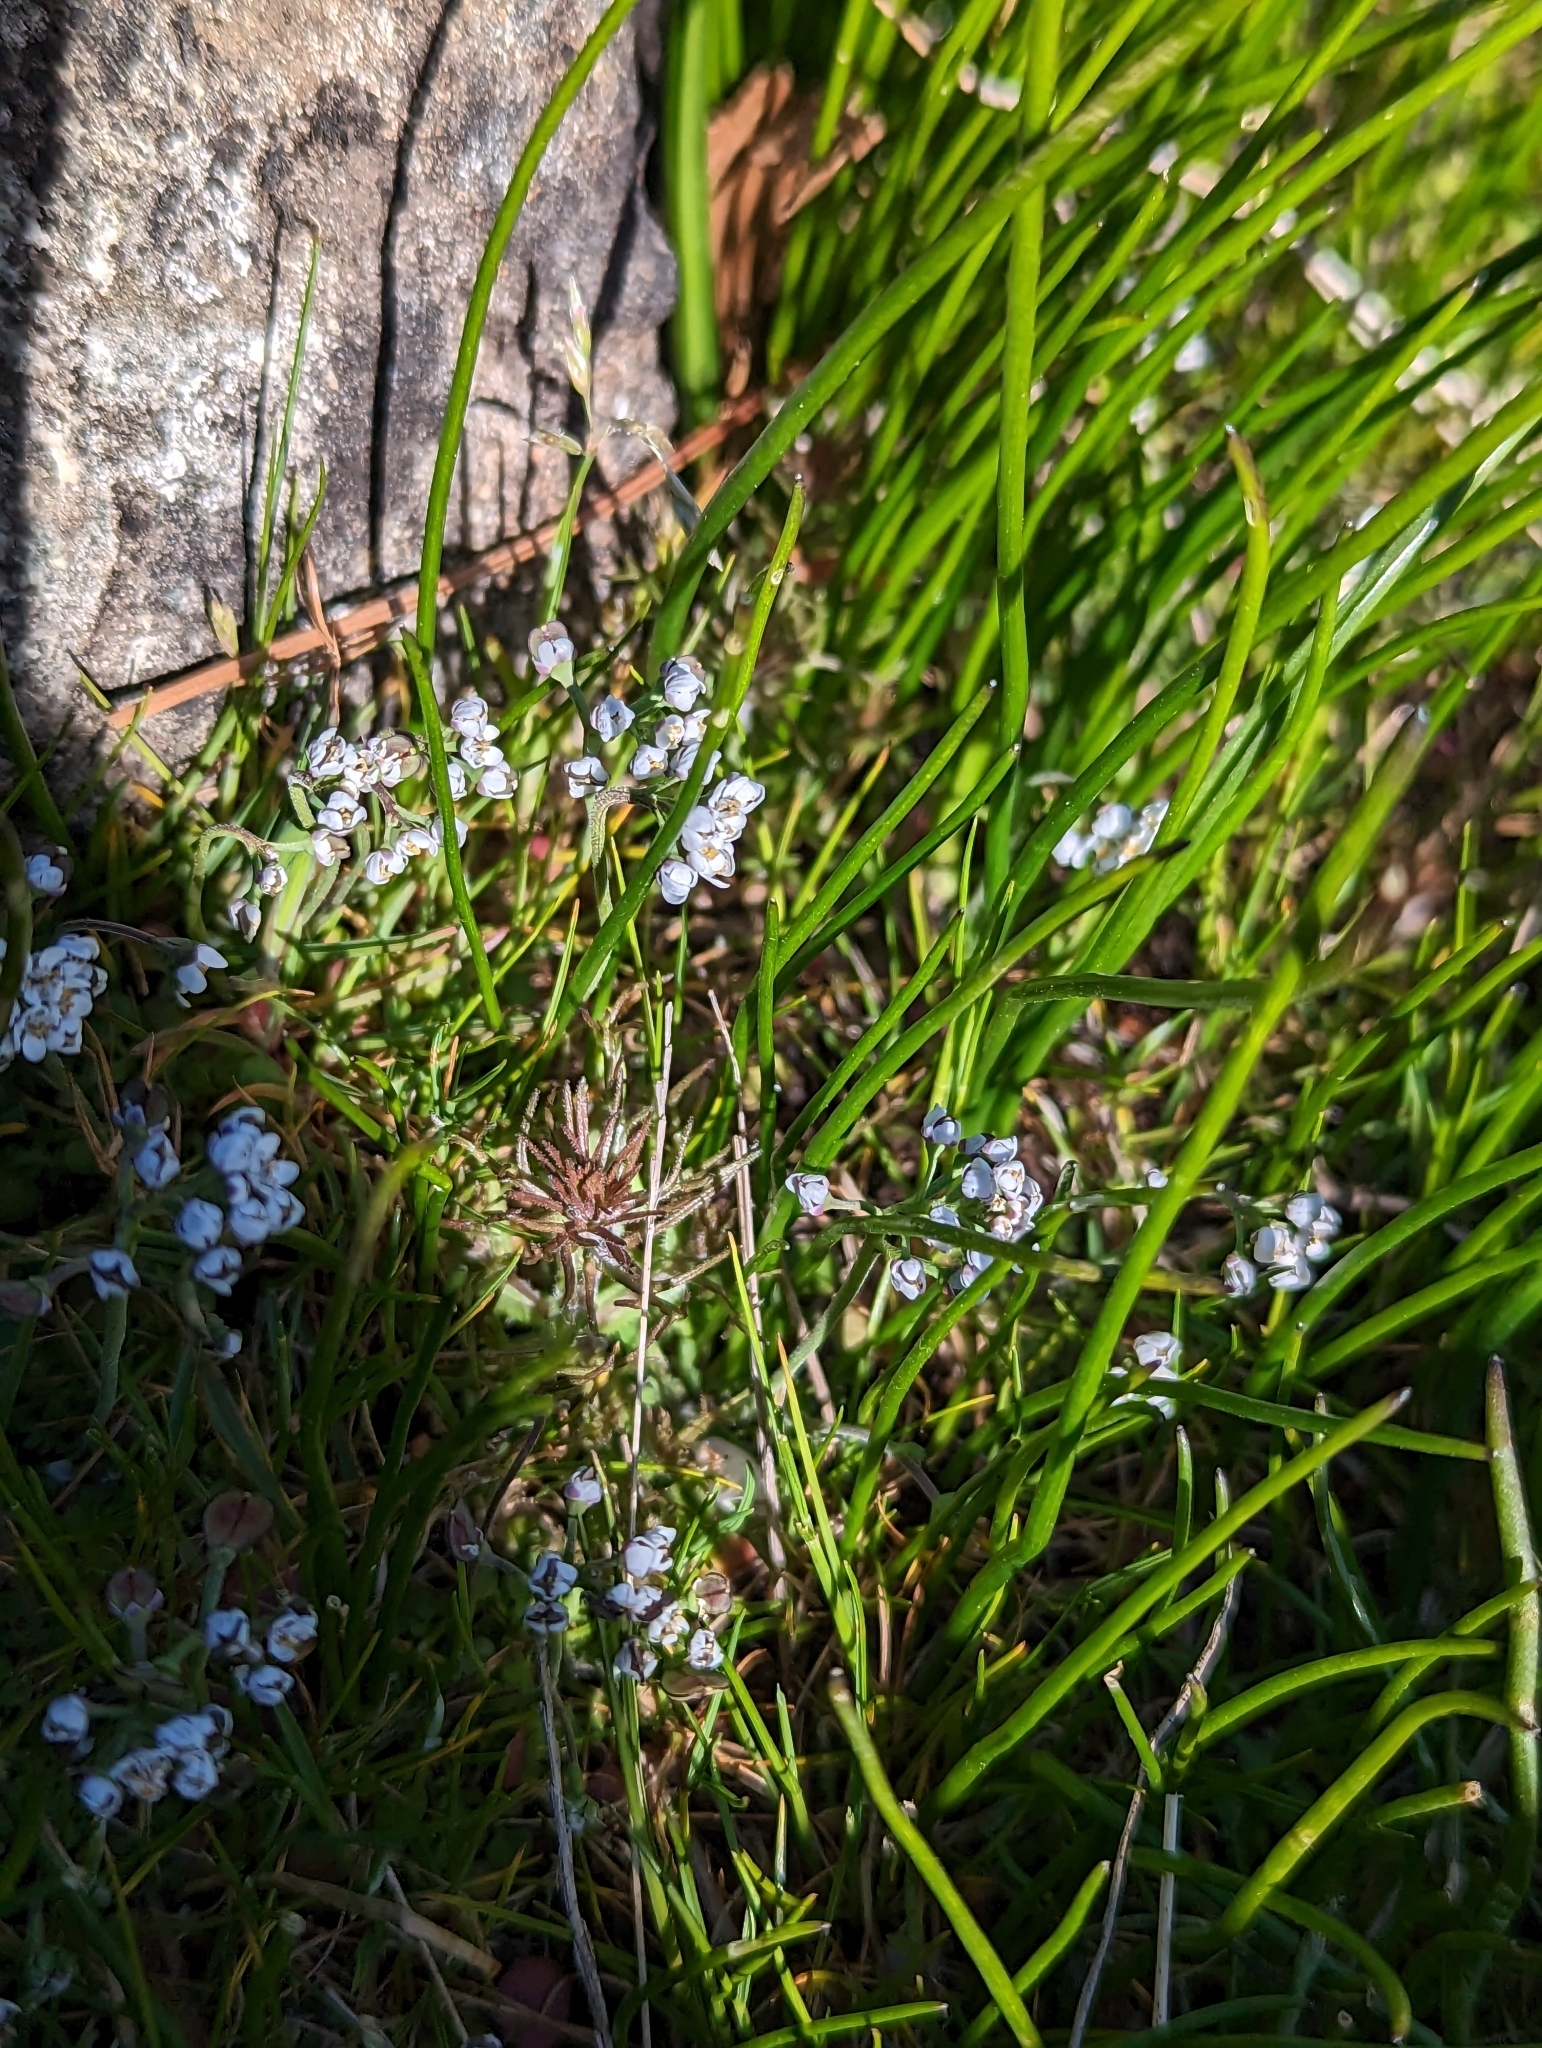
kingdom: Plantae
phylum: Tracheophyta
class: Magnoliopsida
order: Brassicales
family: Brassicaceae
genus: Teesdalia
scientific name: Teesdalia nudicaulis
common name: Shepherd's cress
